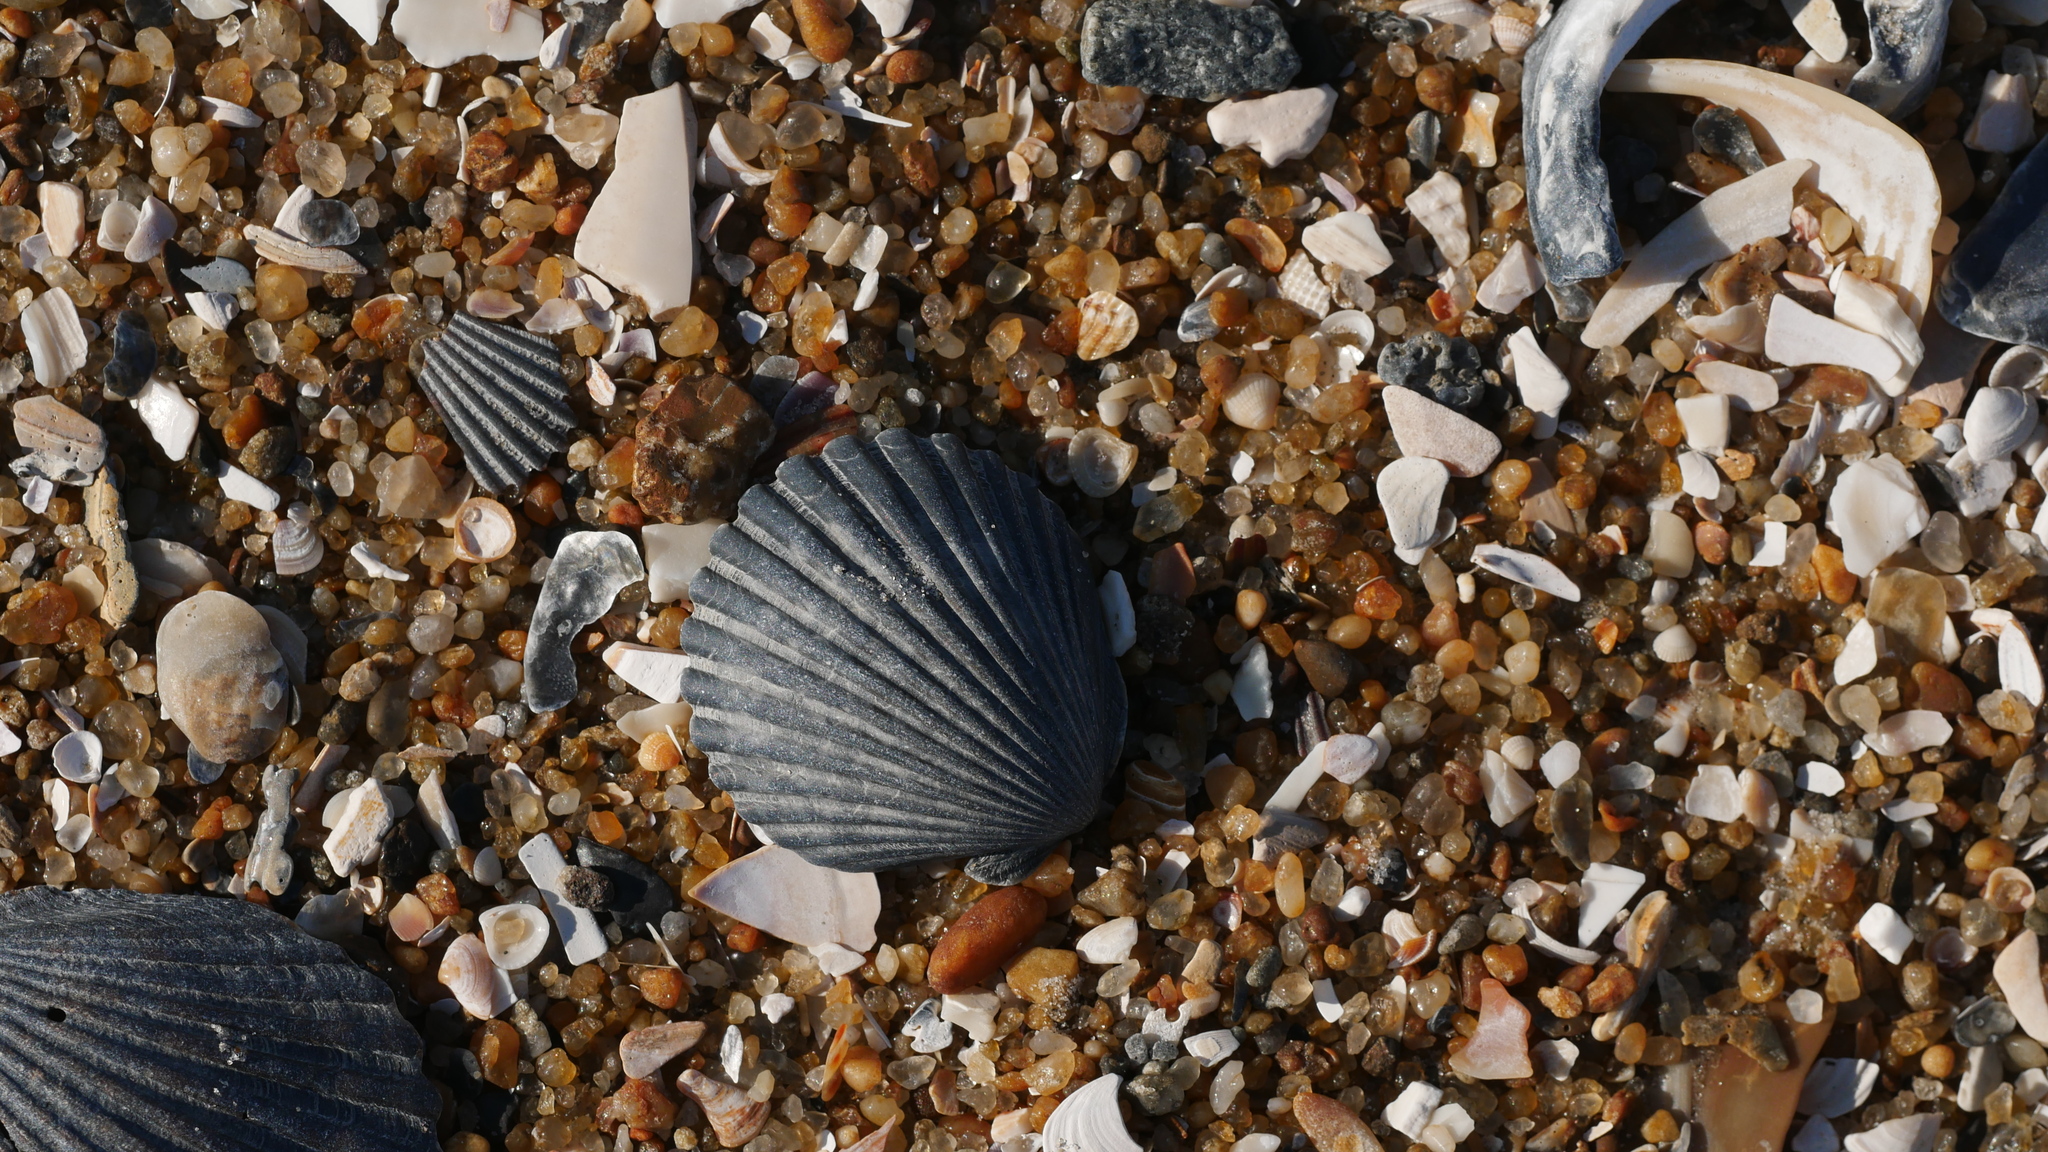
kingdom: Animalia
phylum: Mollusca
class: Bivalvia
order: Pectinida
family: Pectinidae
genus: Argopecten
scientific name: Argopecten irradians
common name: Atlantic bay scallop
